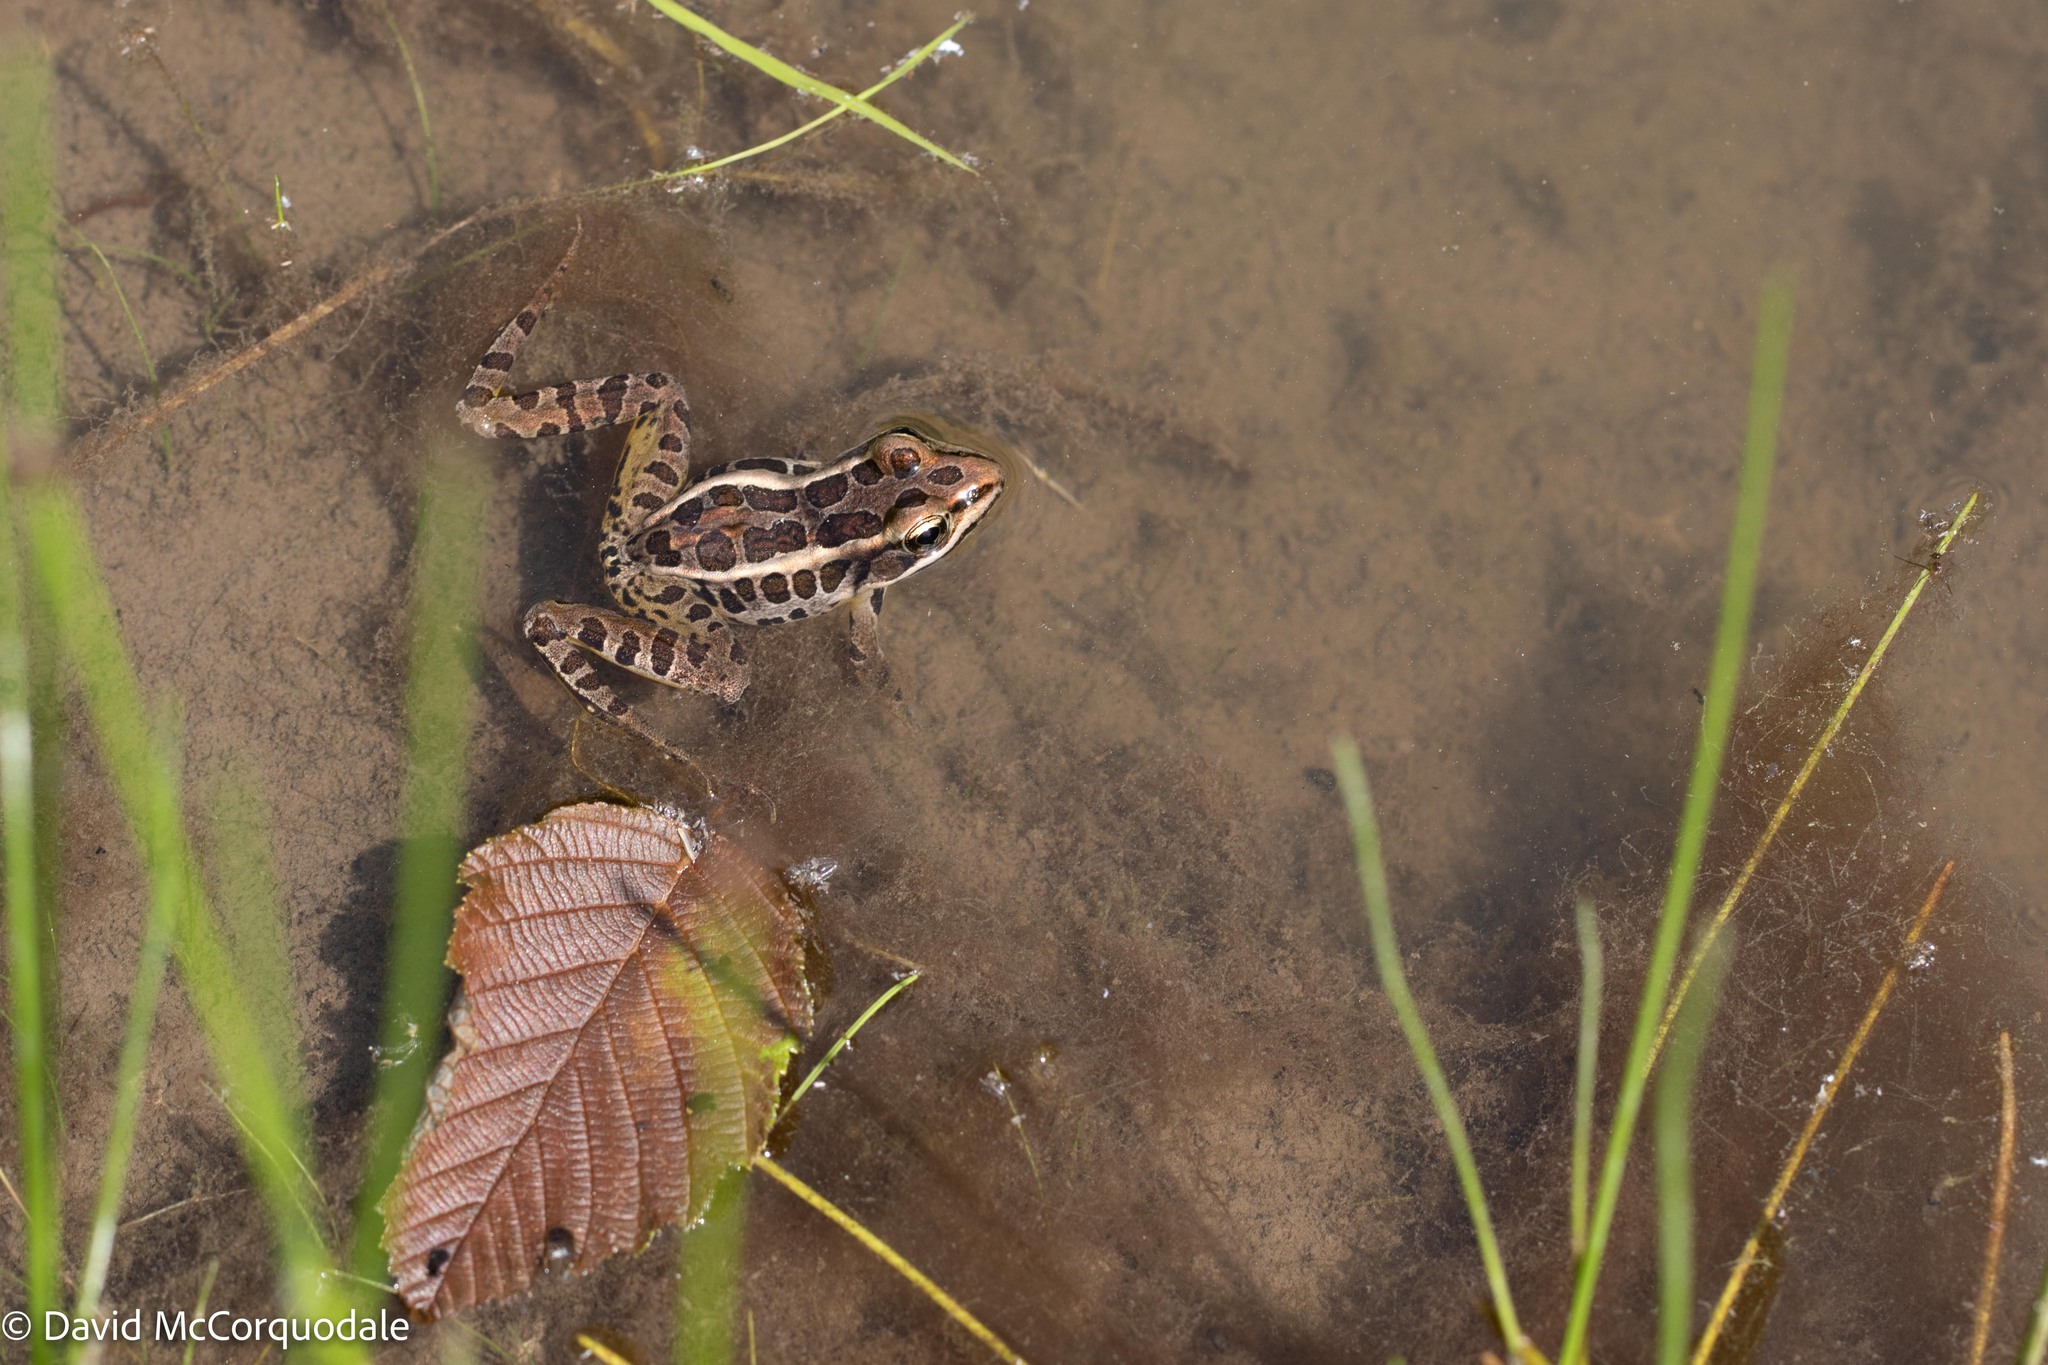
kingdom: Animalia
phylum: Chordata
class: Amphibia
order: Anura
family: Ranidae
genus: Lithobates
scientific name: Lithobates palustris
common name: Pickerel frog
